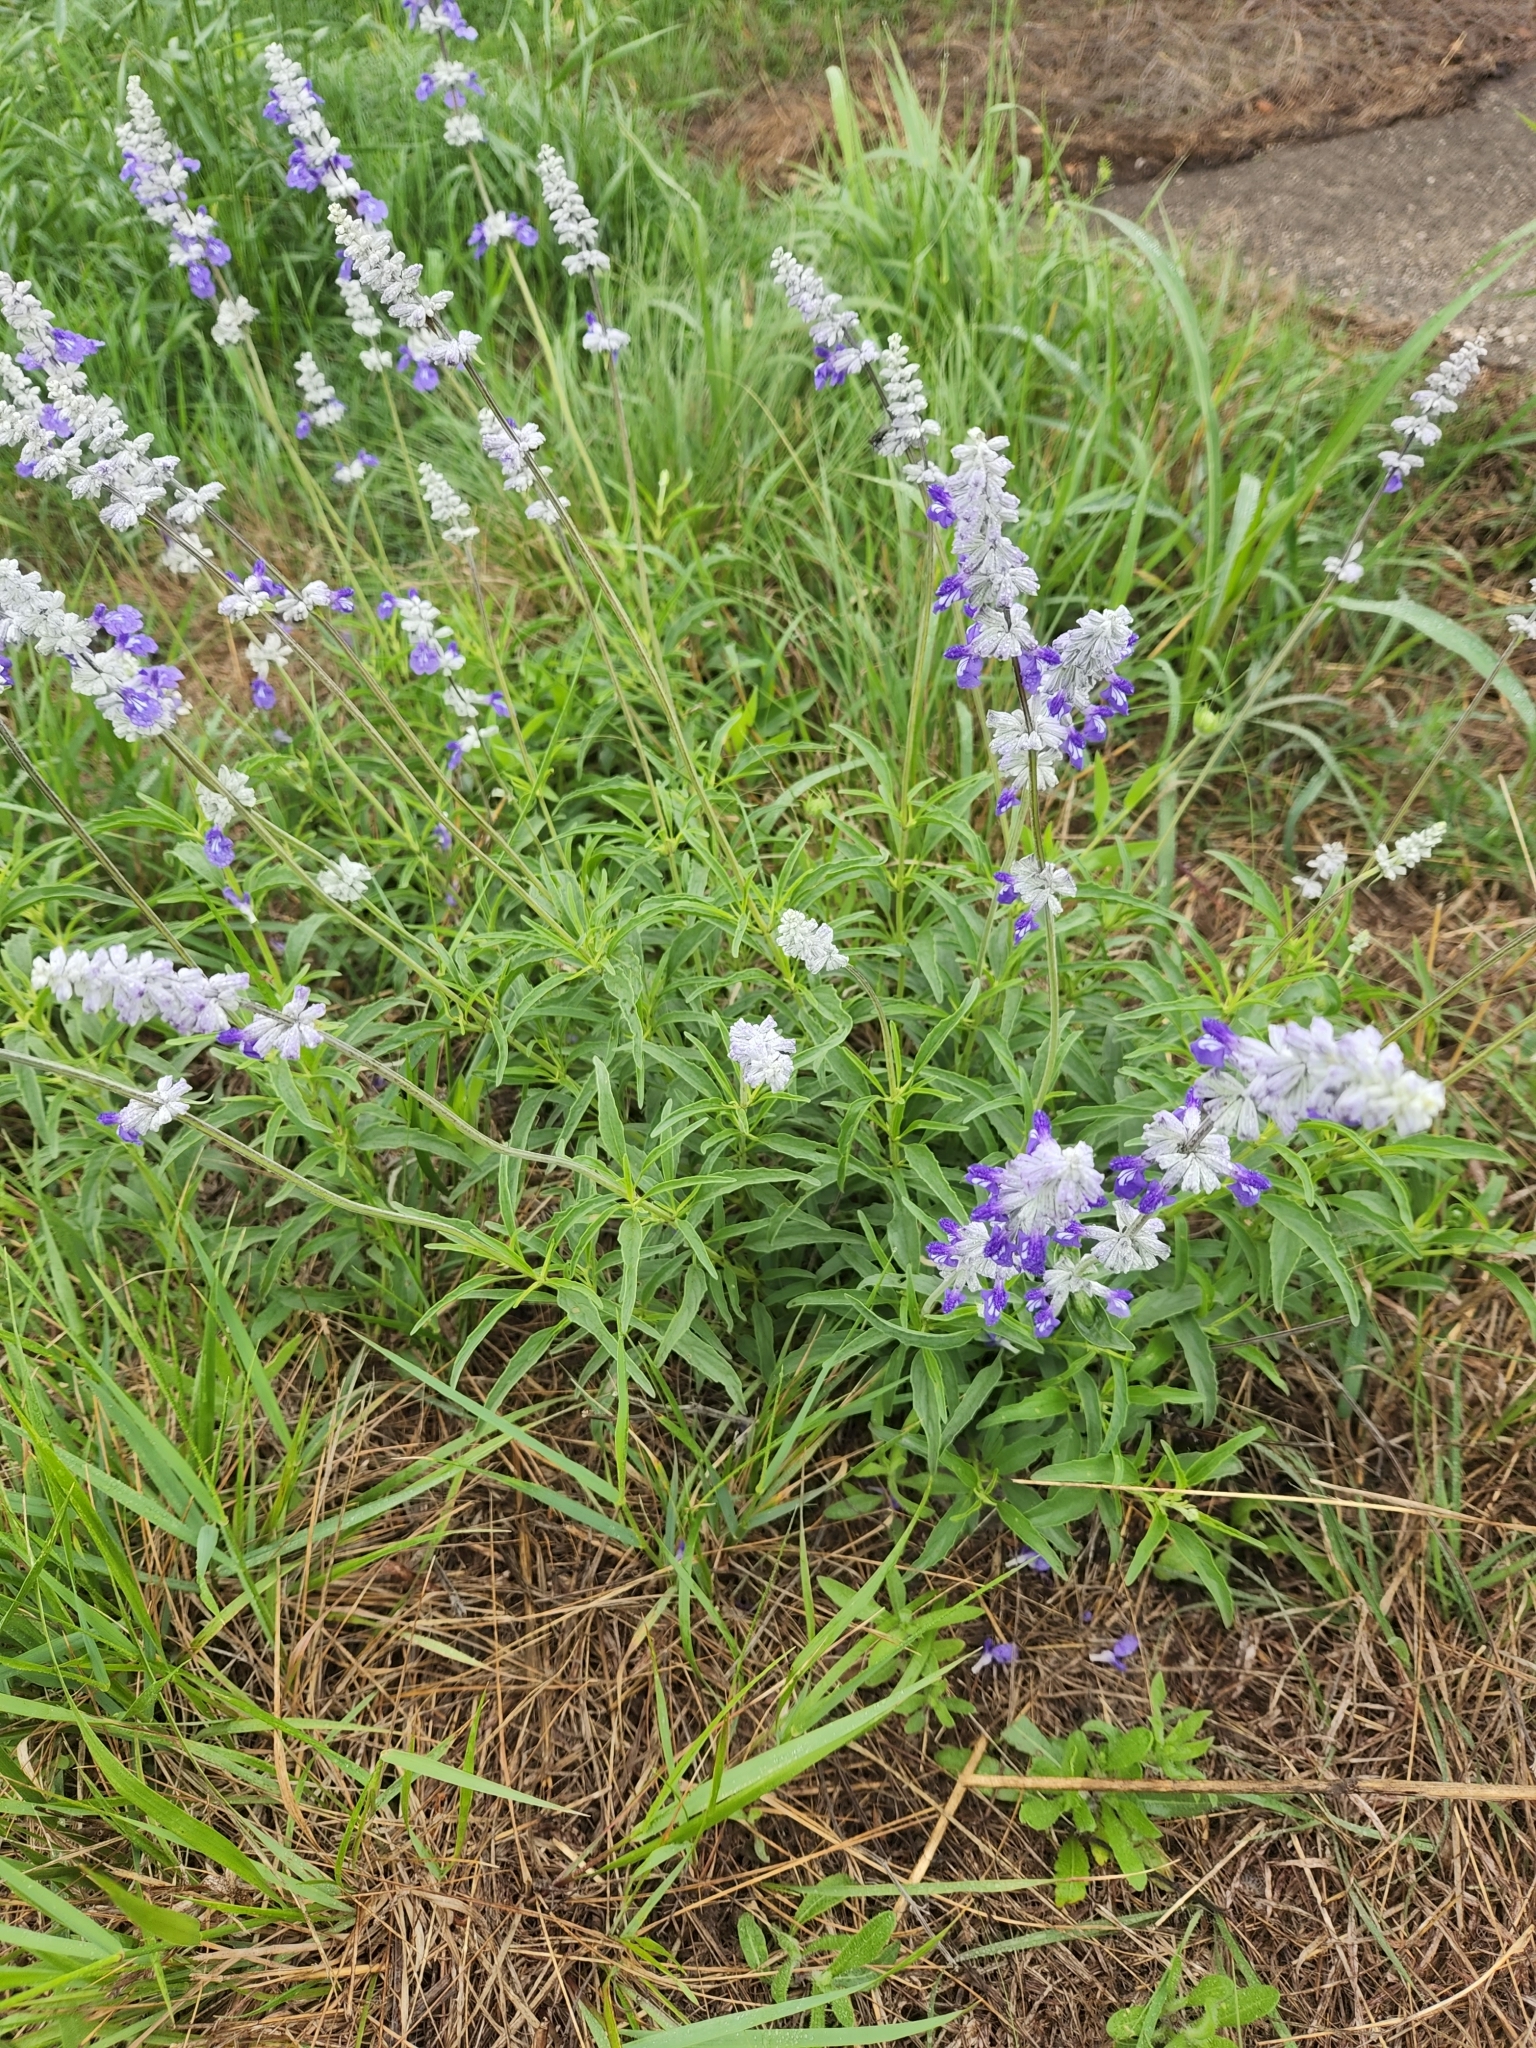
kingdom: Plantae
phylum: Tracheophyta
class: Magnoliopsida
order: Lamiales
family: Lamiaceae
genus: Salvia
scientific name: Salvia farinacea
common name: Mealy sage
